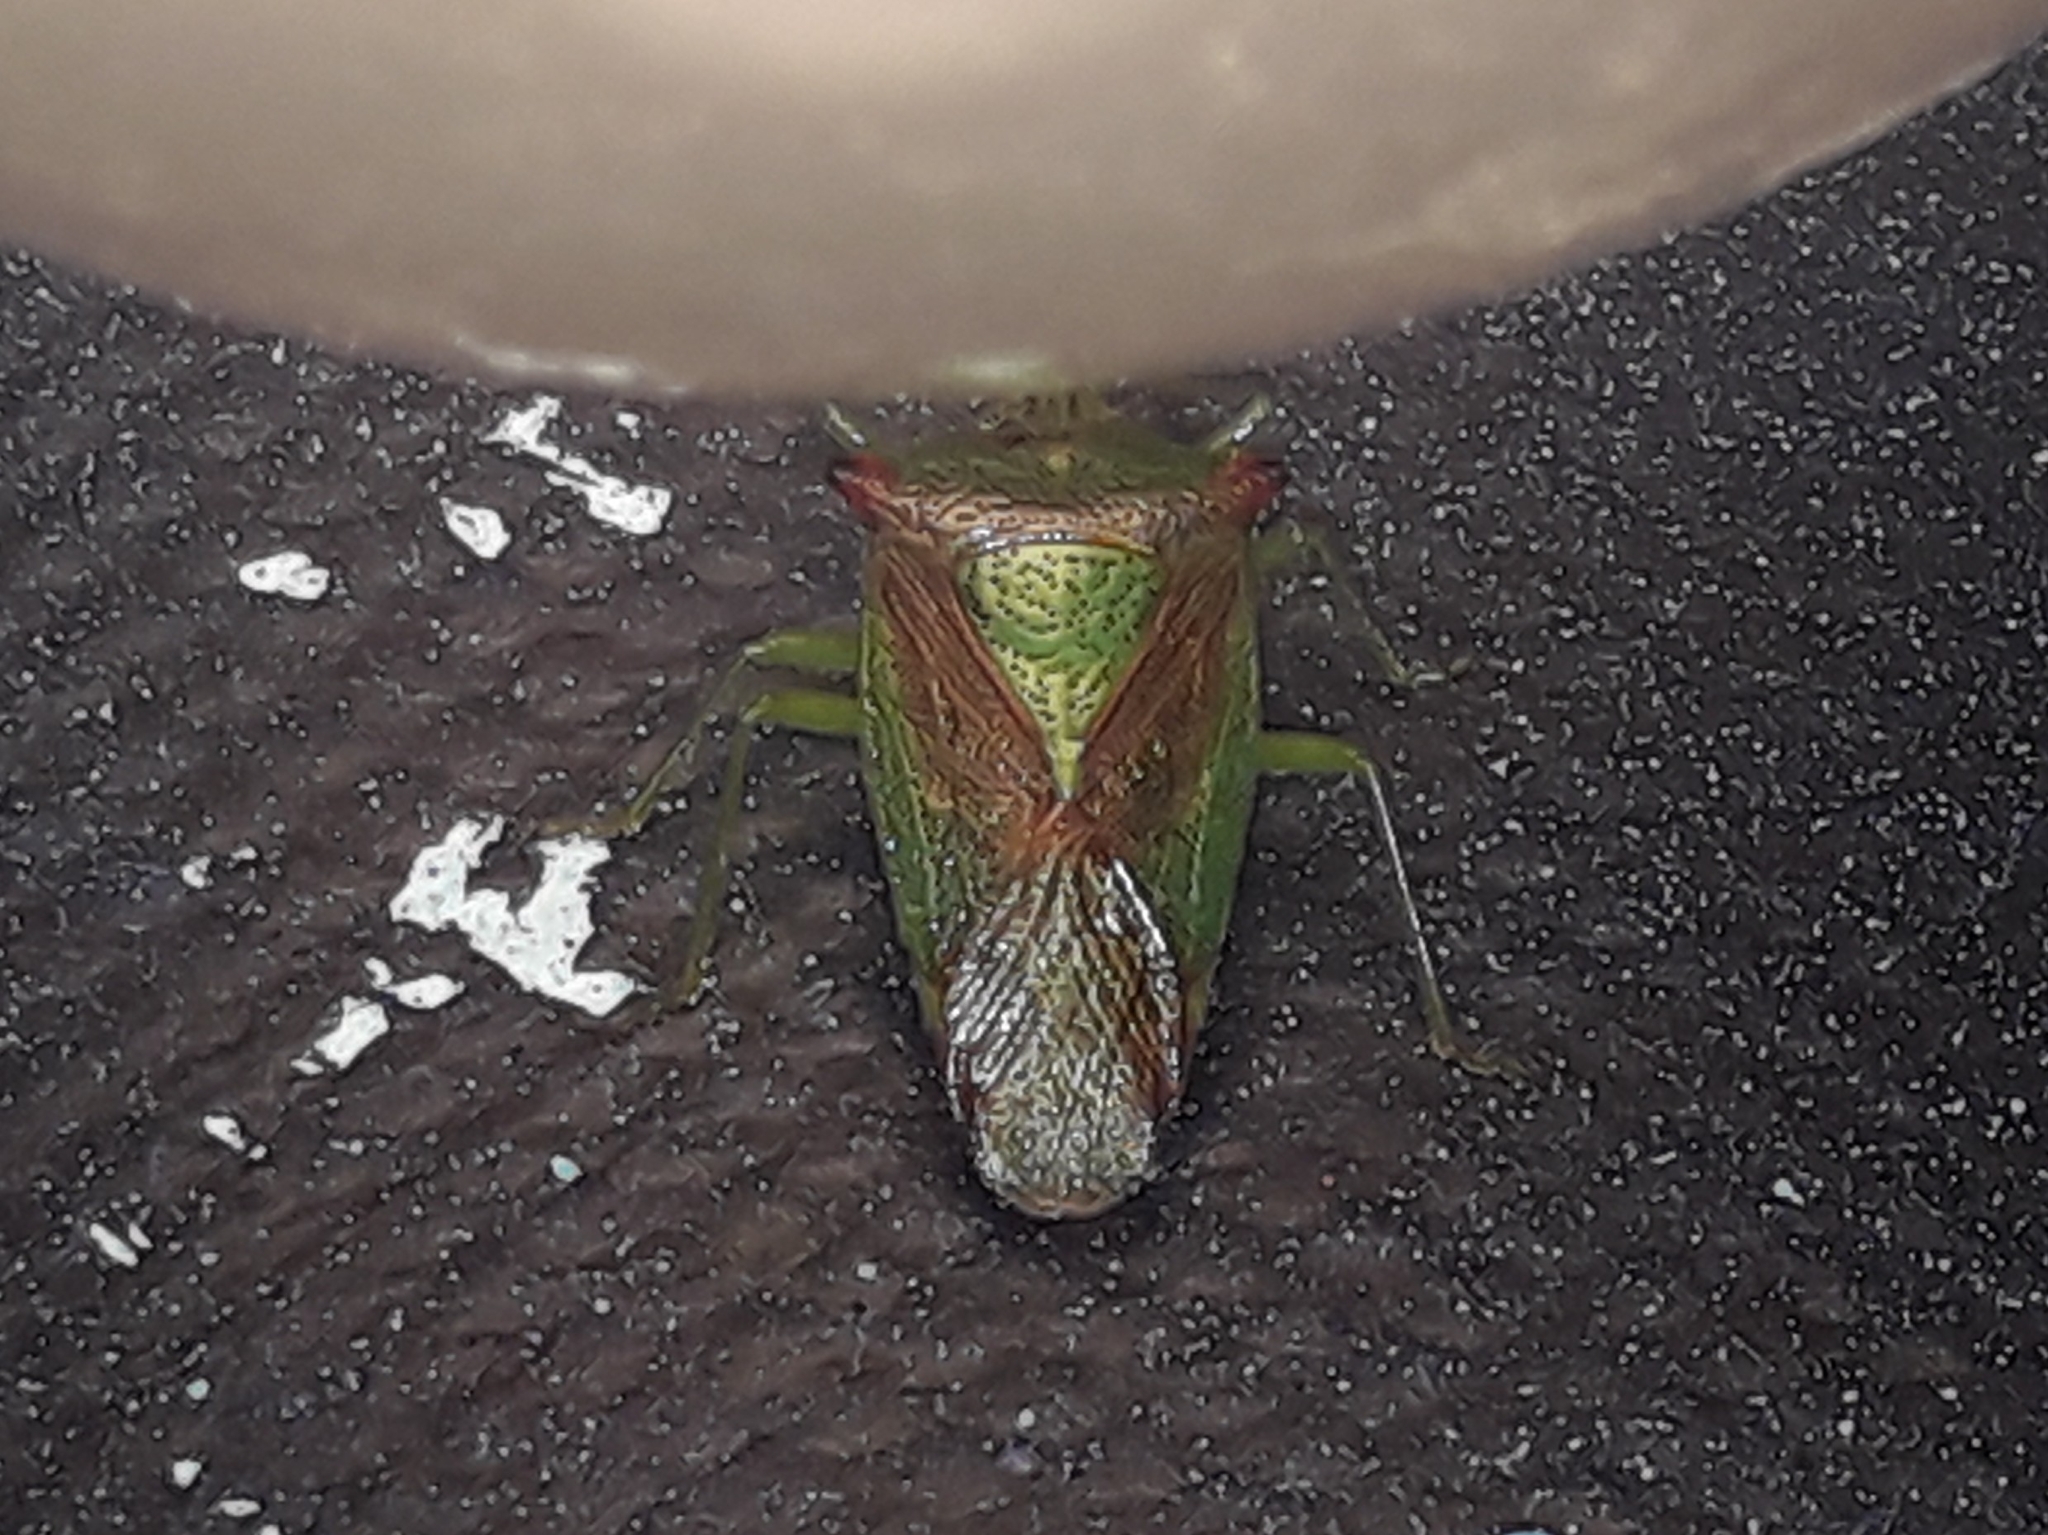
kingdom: Animalia
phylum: Arthropoda
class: Insecta
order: Hemiptera
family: Acanthosomatidae
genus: Acanthosoma
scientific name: Acanthosoma haemorrhoidale
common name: Hawthorn shieldbug
